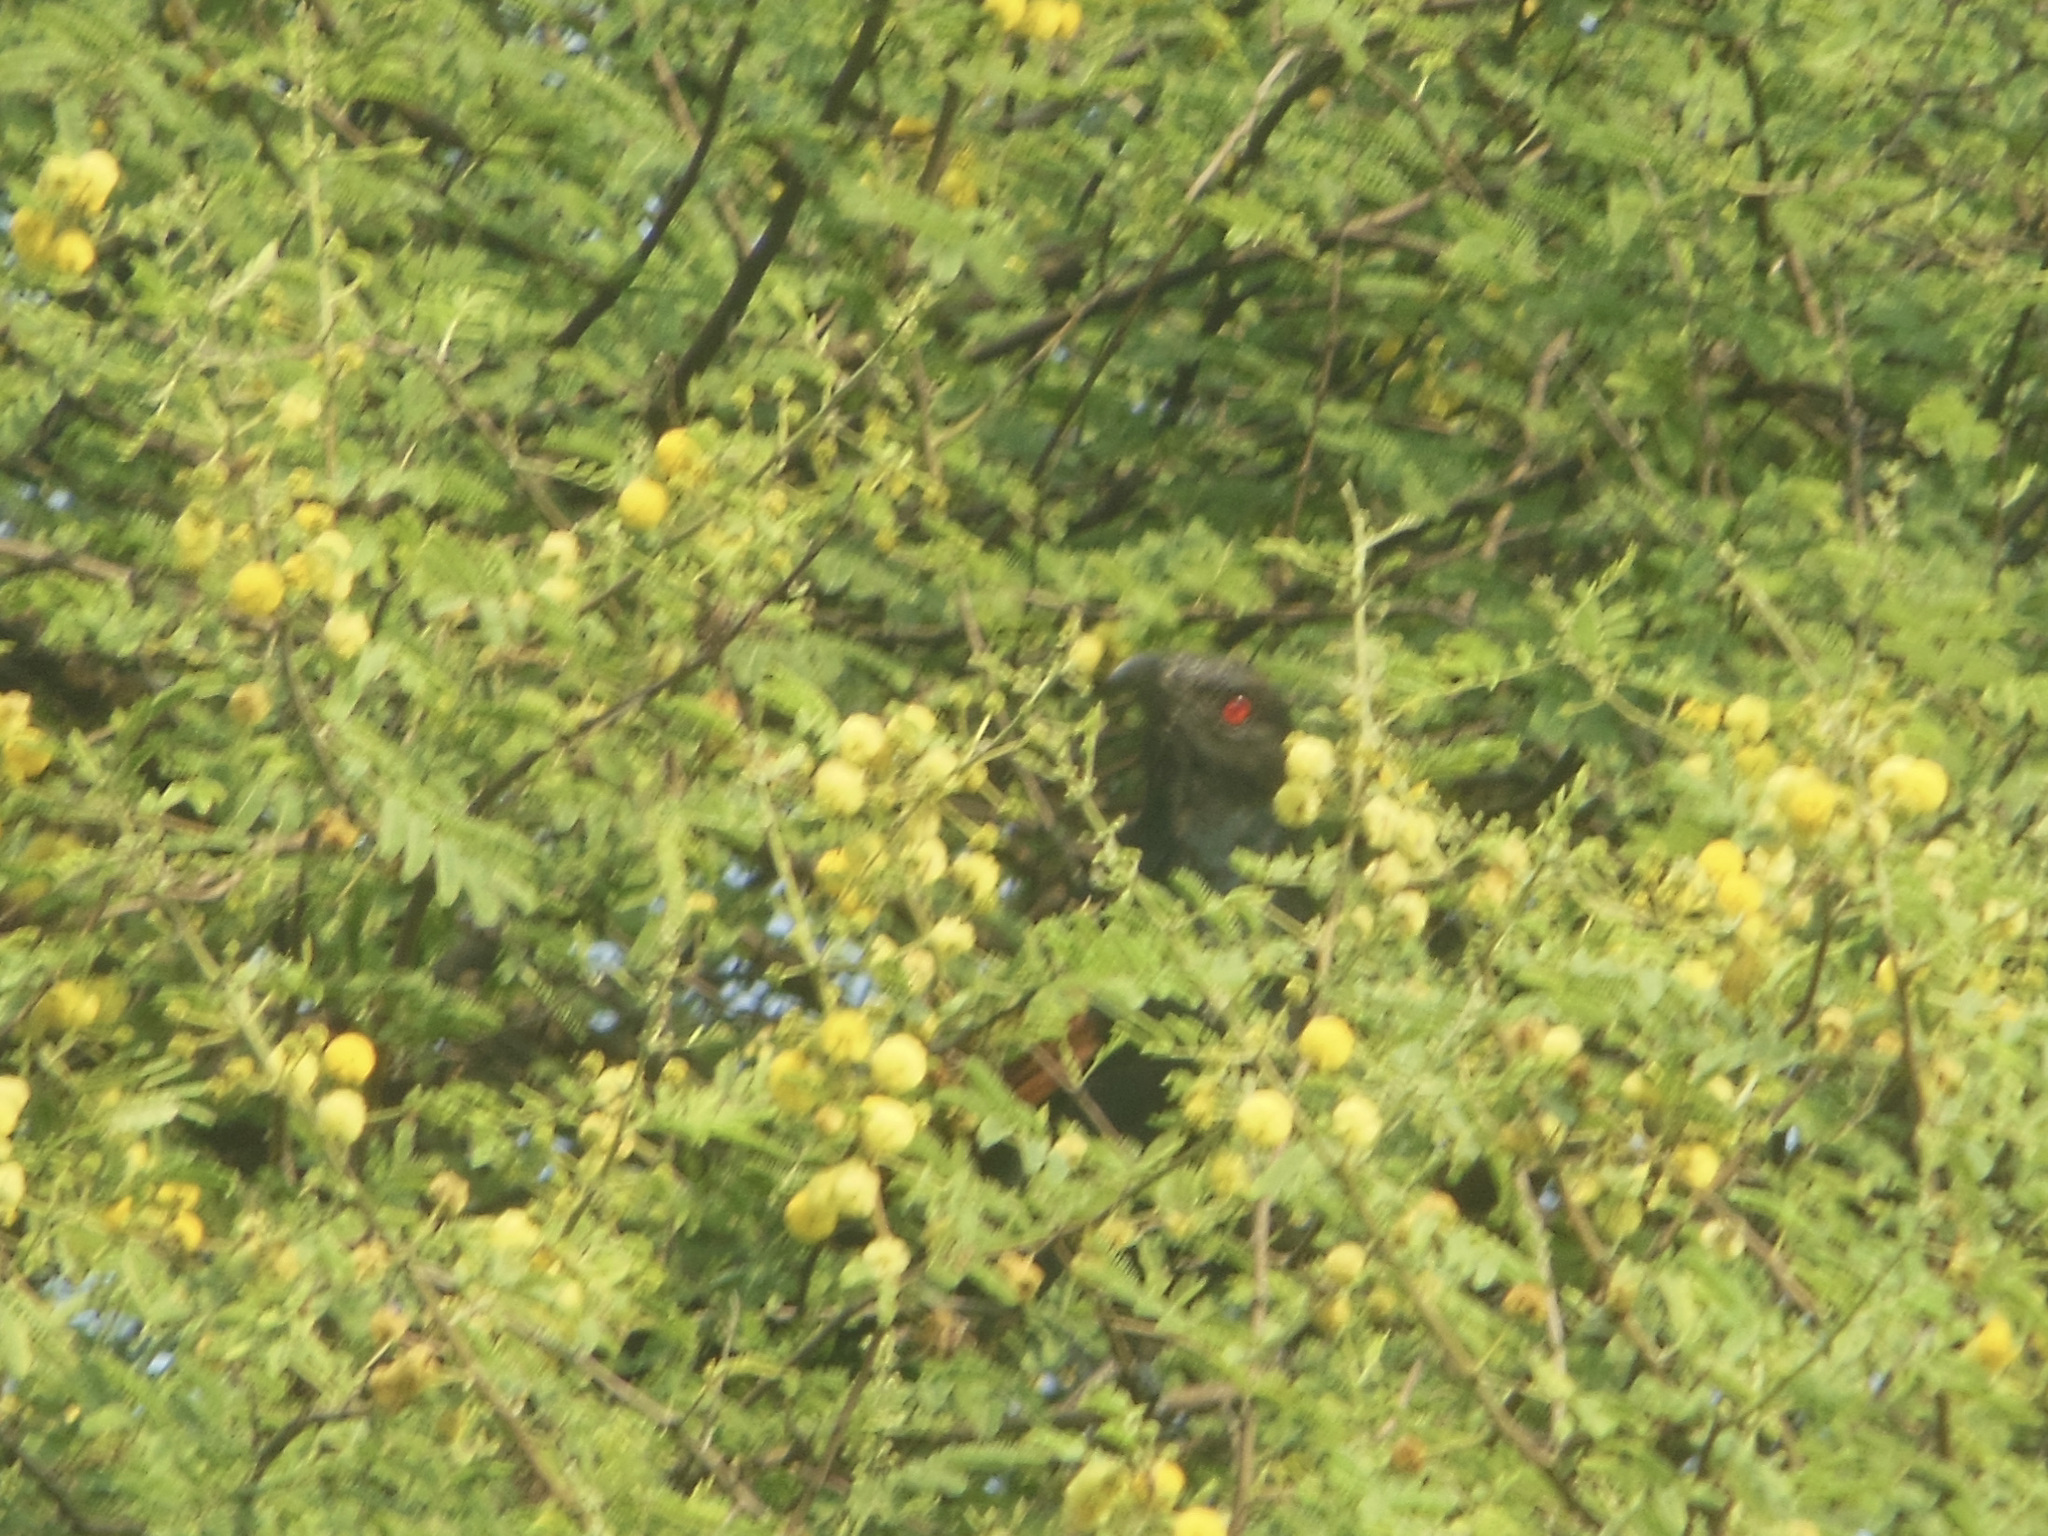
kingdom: Animalia
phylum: Chordata
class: Aves
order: Cuculiformes
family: Cuculidae
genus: Centropus
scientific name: Centropus sinensis
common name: Greater coucal
